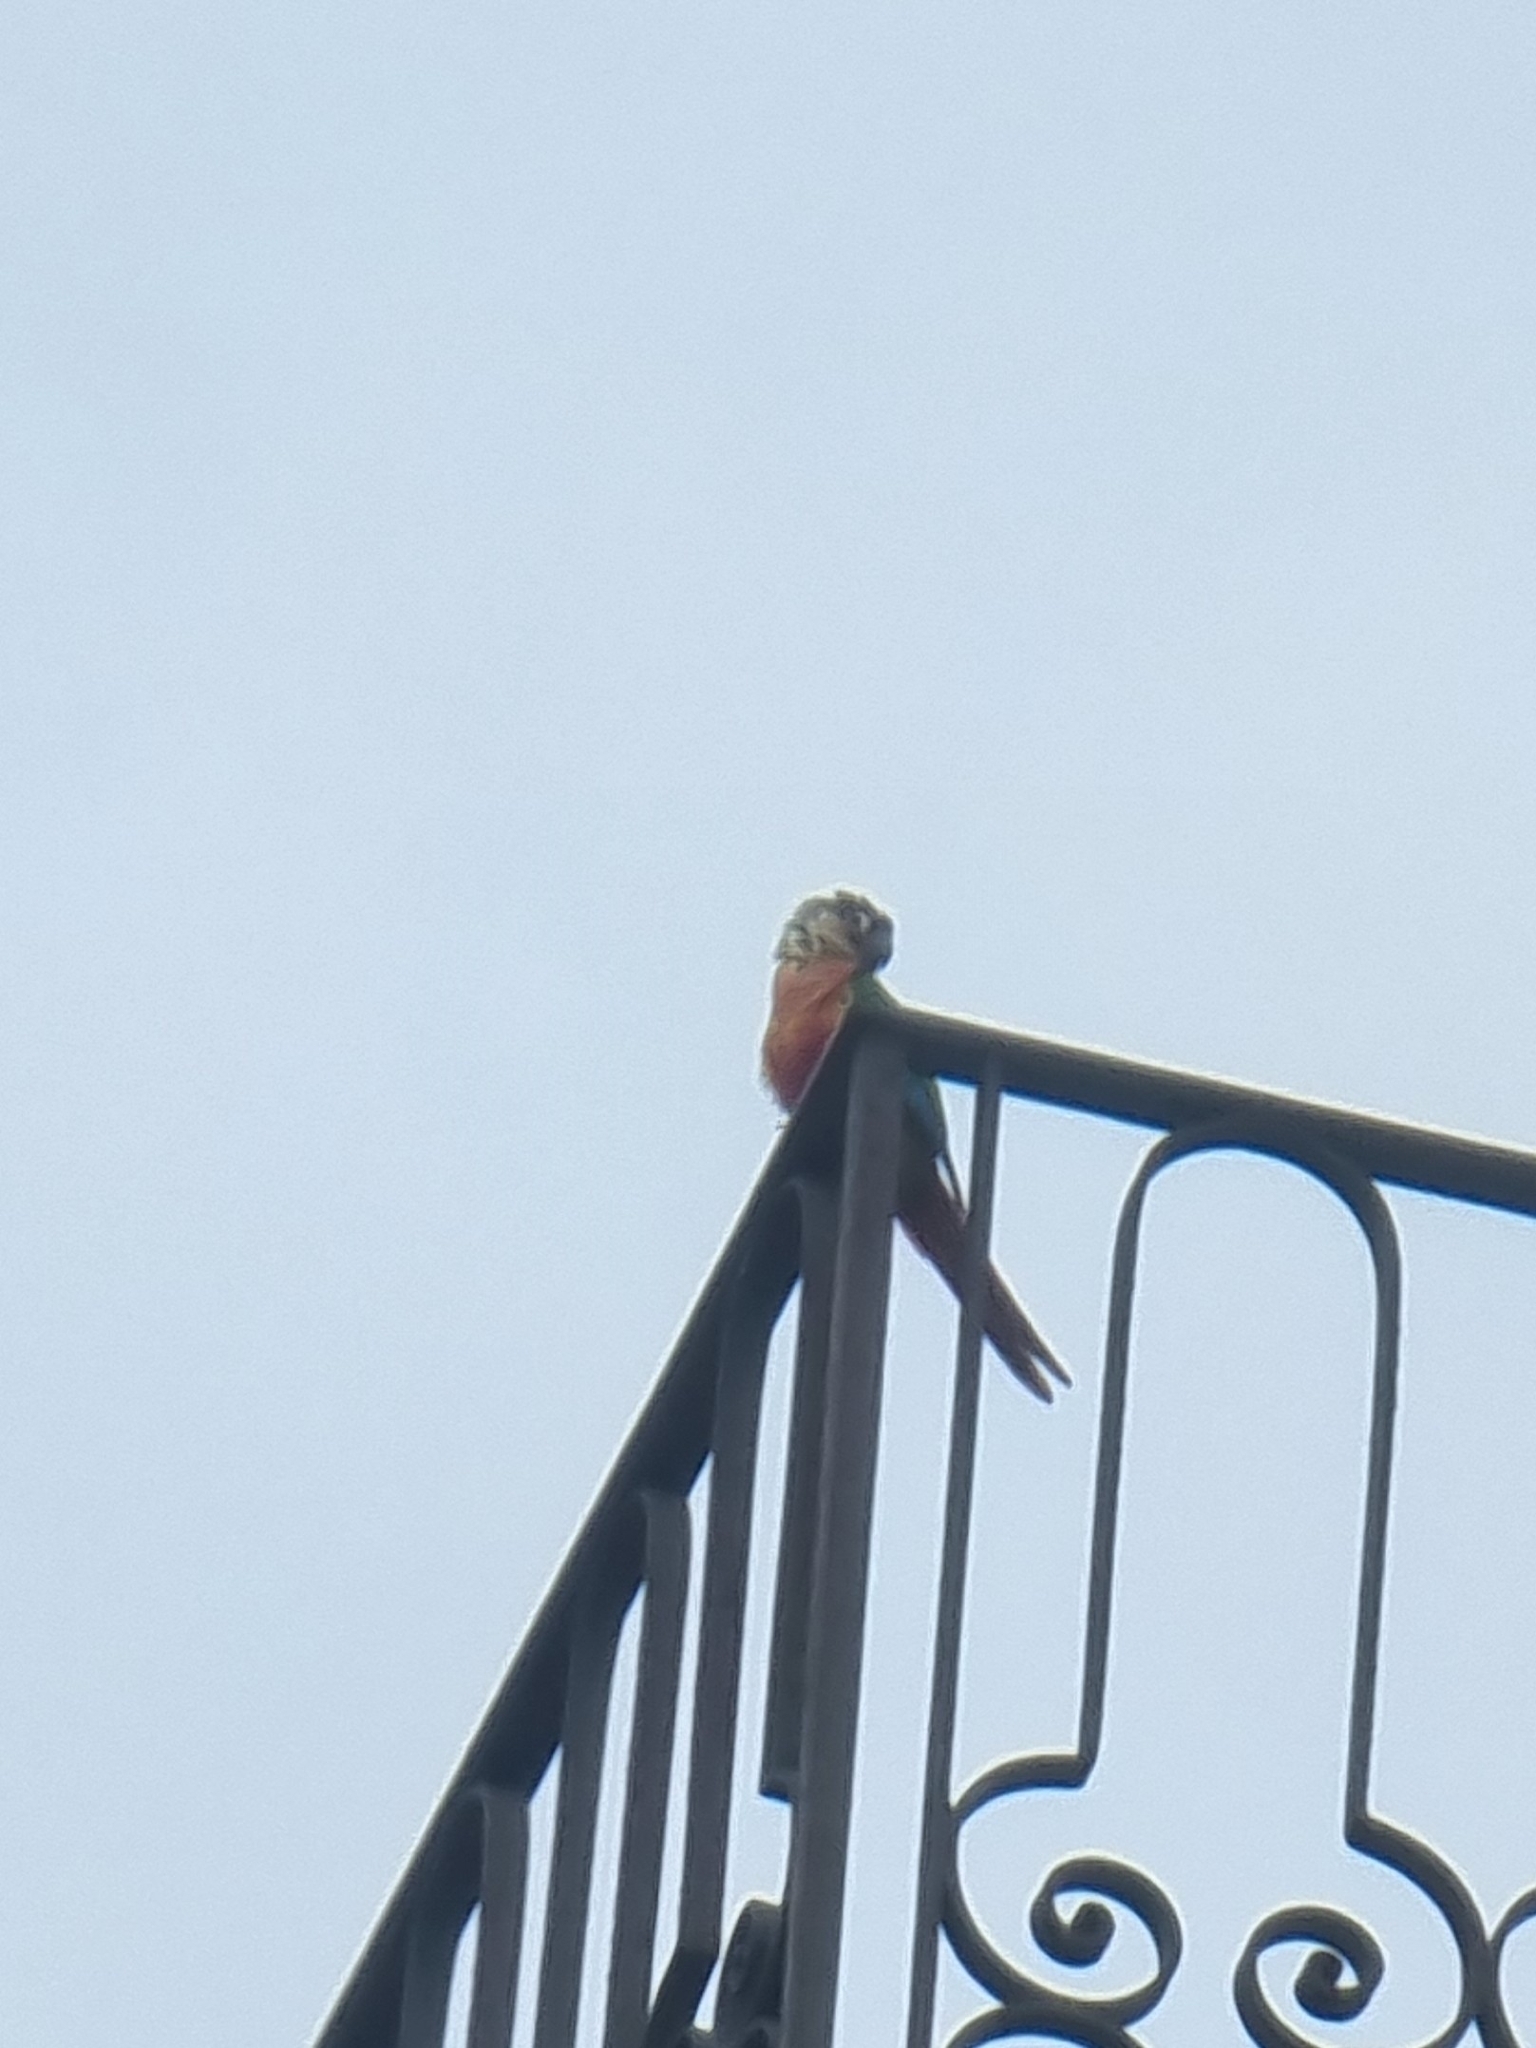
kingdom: Animalia
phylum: Chordata
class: Aves
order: Psittaciformes
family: Psittacidae
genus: Pyrrhura
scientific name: Pyrrhura molinae
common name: Green-cheeked parakeet
